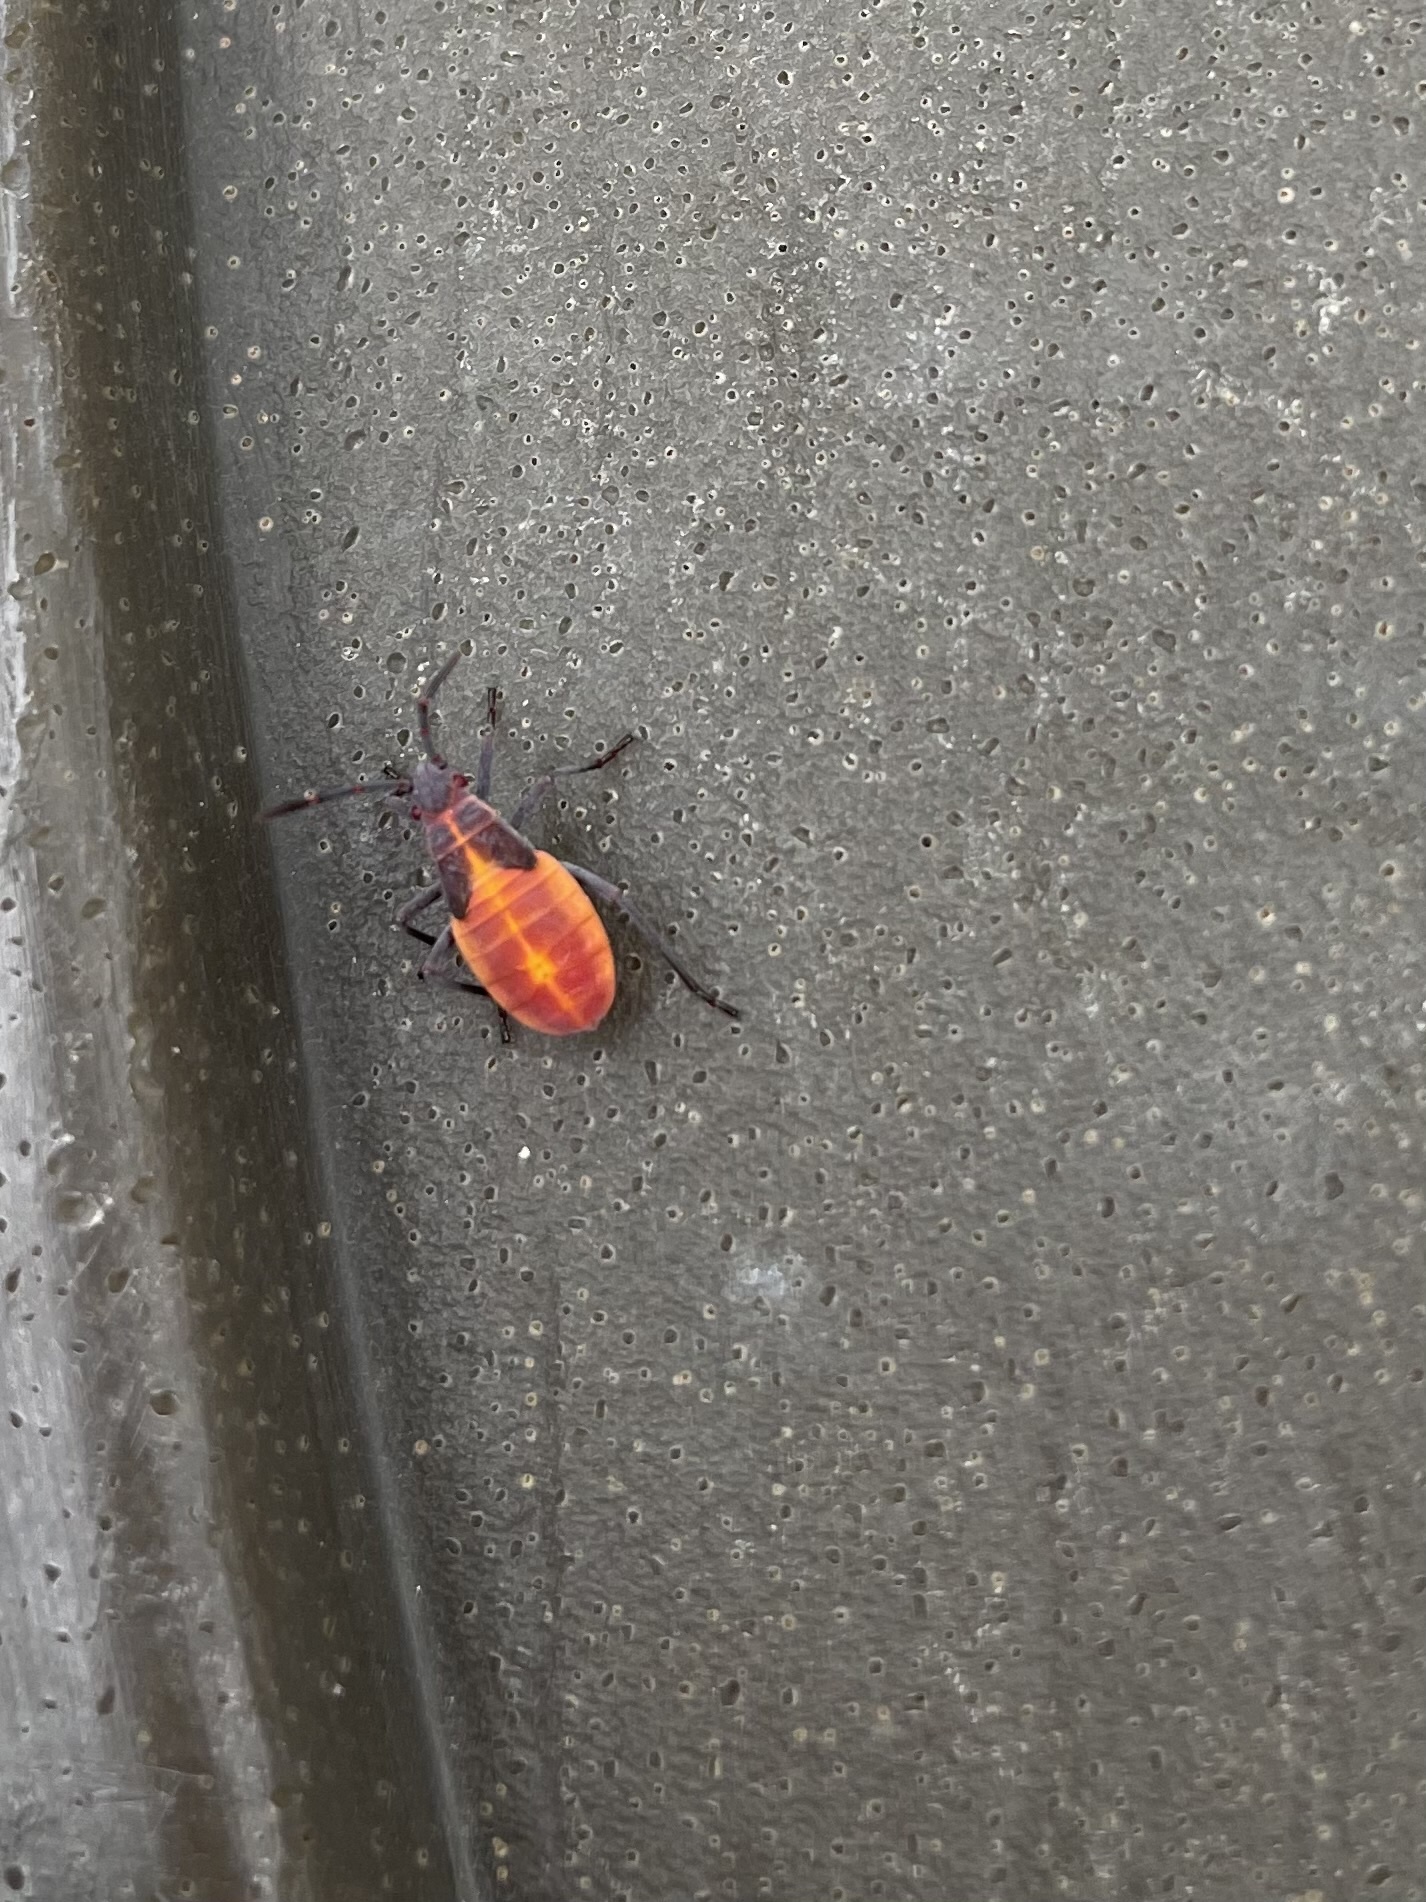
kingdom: Animalia
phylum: Arthropoda
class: Insecta
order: Hemiptera
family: Rhopalidae
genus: Boisea
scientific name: Boisea trivittata
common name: Boxelder bug
